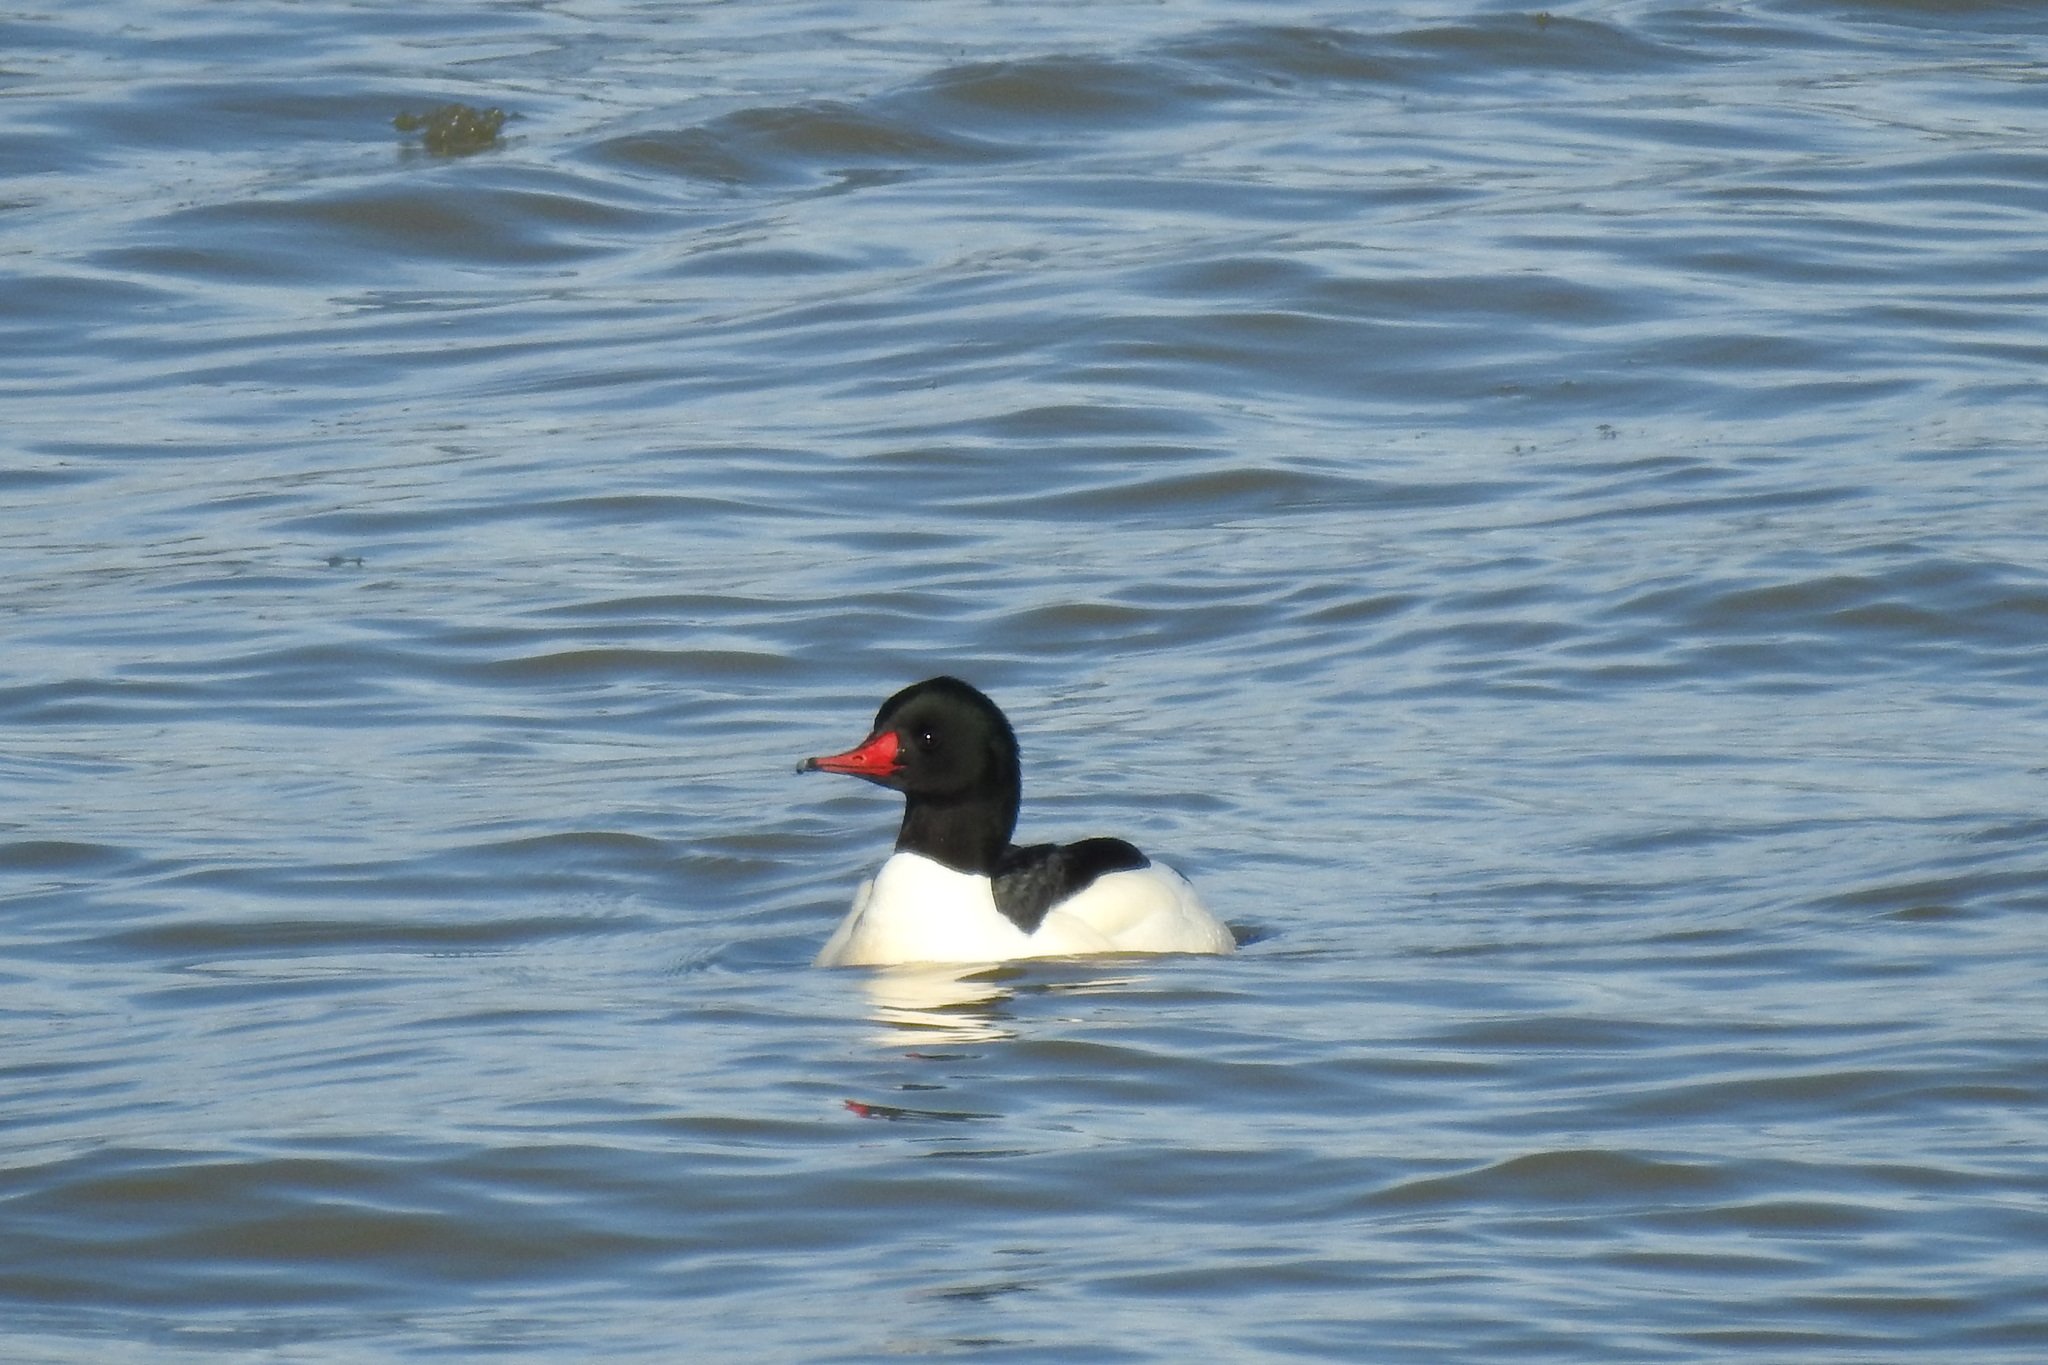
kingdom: Animalia
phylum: Chordata
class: Aves
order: Anseriformes
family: Anatidae
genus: Mergus
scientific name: Mergus merganser
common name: Common merganser
